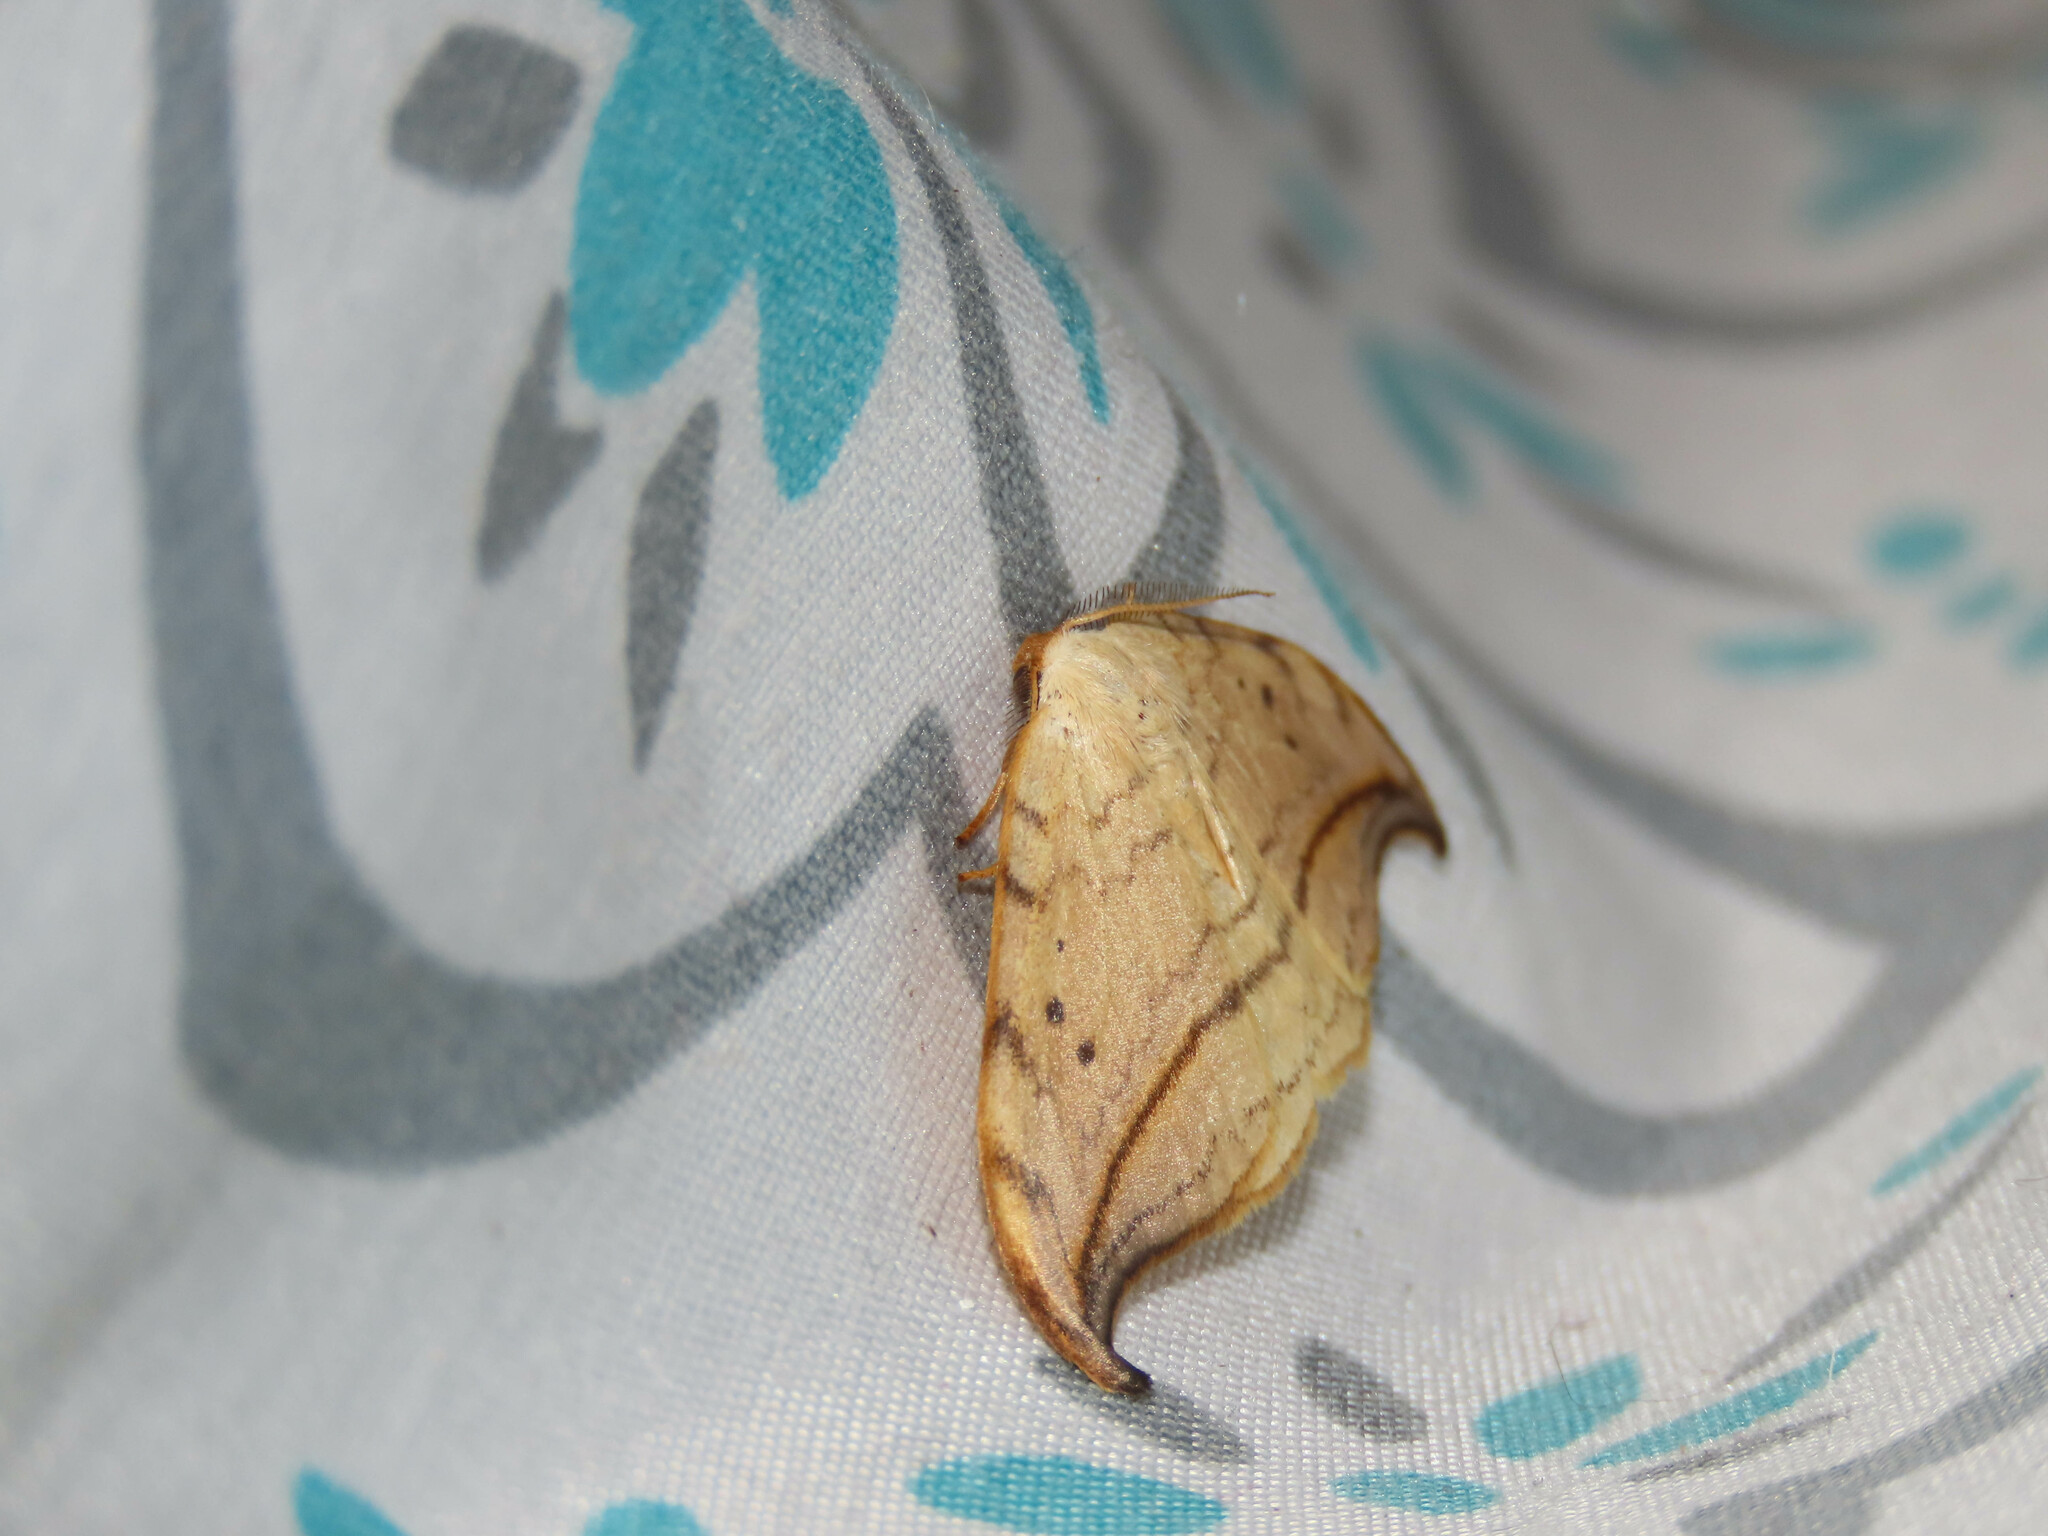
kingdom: Animalia
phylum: Arthropoda
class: Insecta
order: Lepidoptera
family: Drepanidae
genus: Drepana
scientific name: Drepana arcuata
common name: Arched hooktip moth
